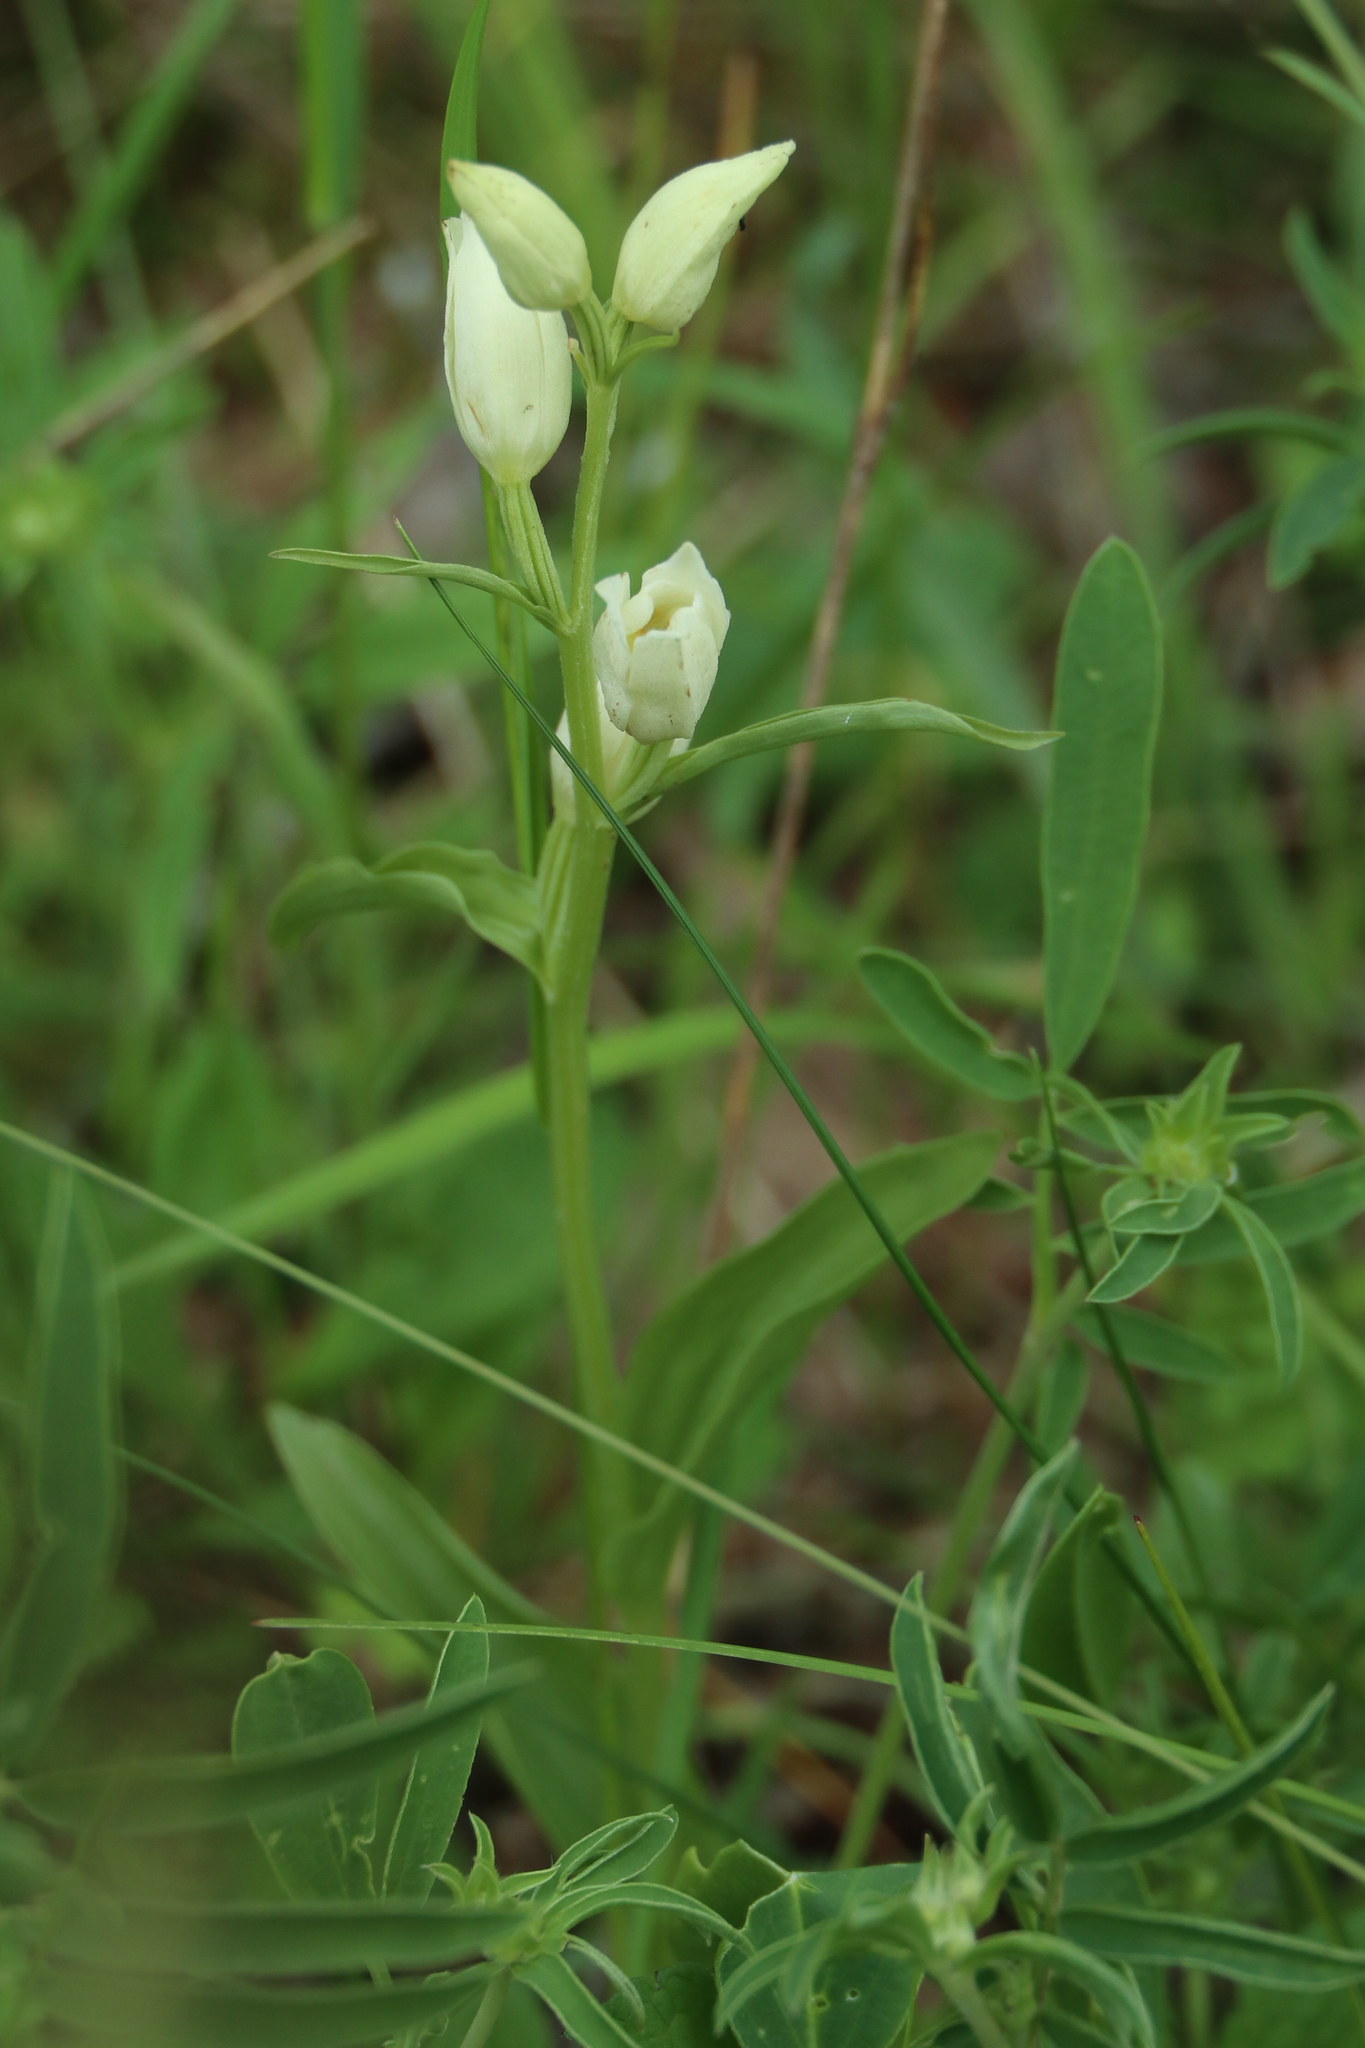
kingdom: Plantae
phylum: Tracheophyta
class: Liliopsida
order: Asparagales
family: Orchidaceae
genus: Cephalanthera
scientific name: Cephalanthera damasonium
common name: White helleborine
